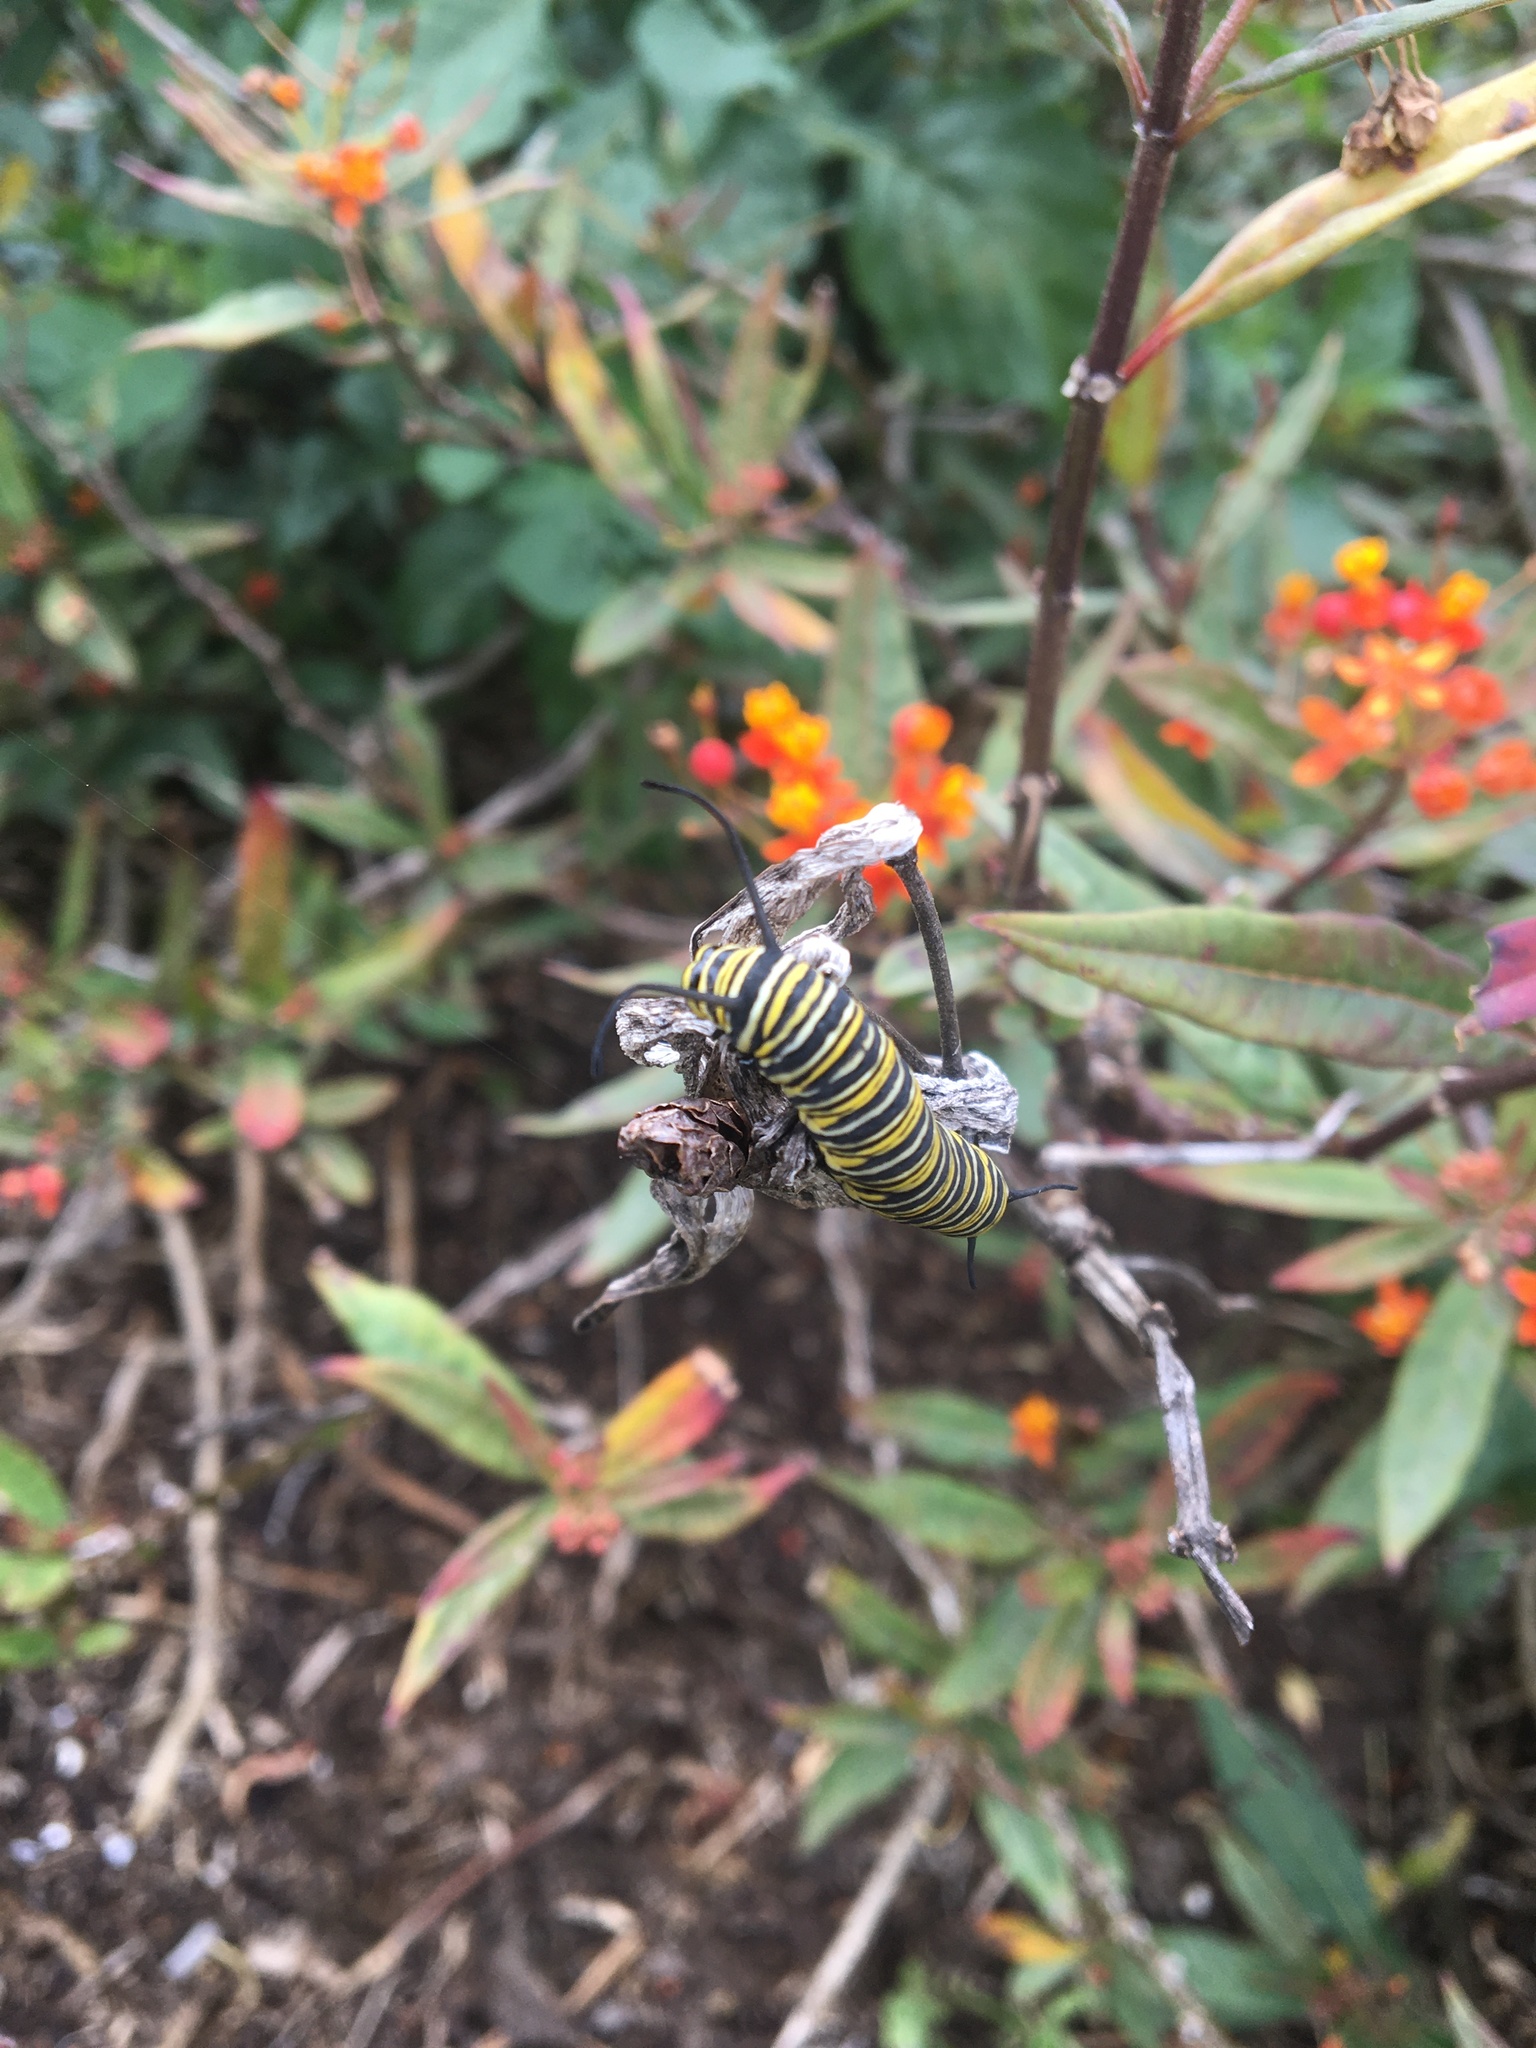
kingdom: Animalia
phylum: Arthropoda
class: Insecta
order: Lepidoptera
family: Nymphalidae
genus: Danaus
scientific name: Danaus plexippus
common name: Monarch
